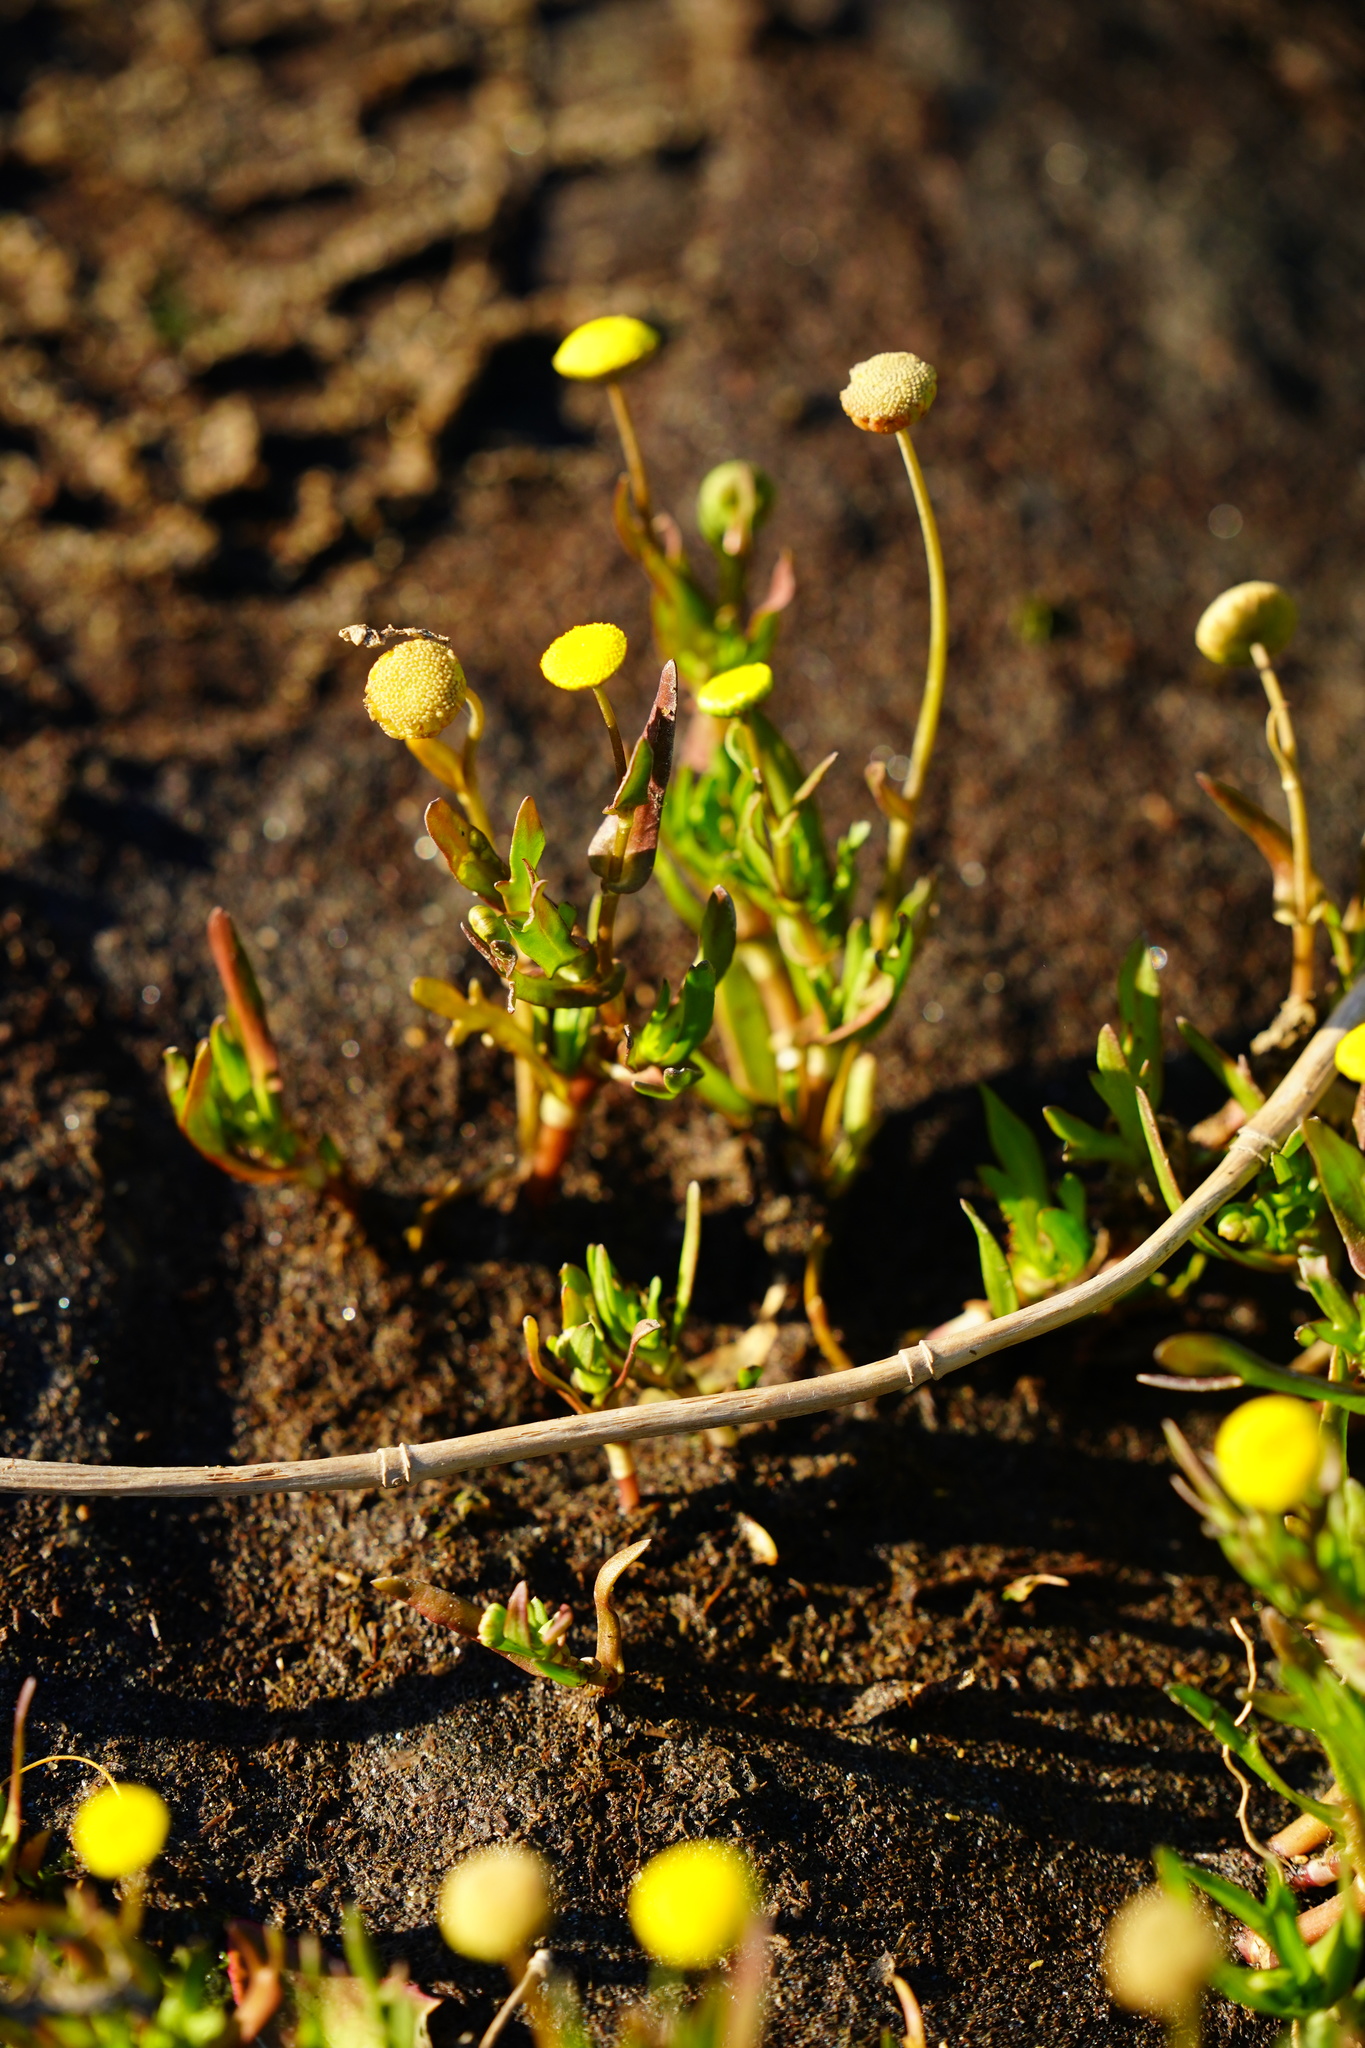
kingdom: Plantae
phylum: Tracheophyta
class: Magnoliopsida
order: Asterales
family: Asteraceae
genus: Cotula
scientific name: Cotula coronopifolia
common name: Buttonweed
